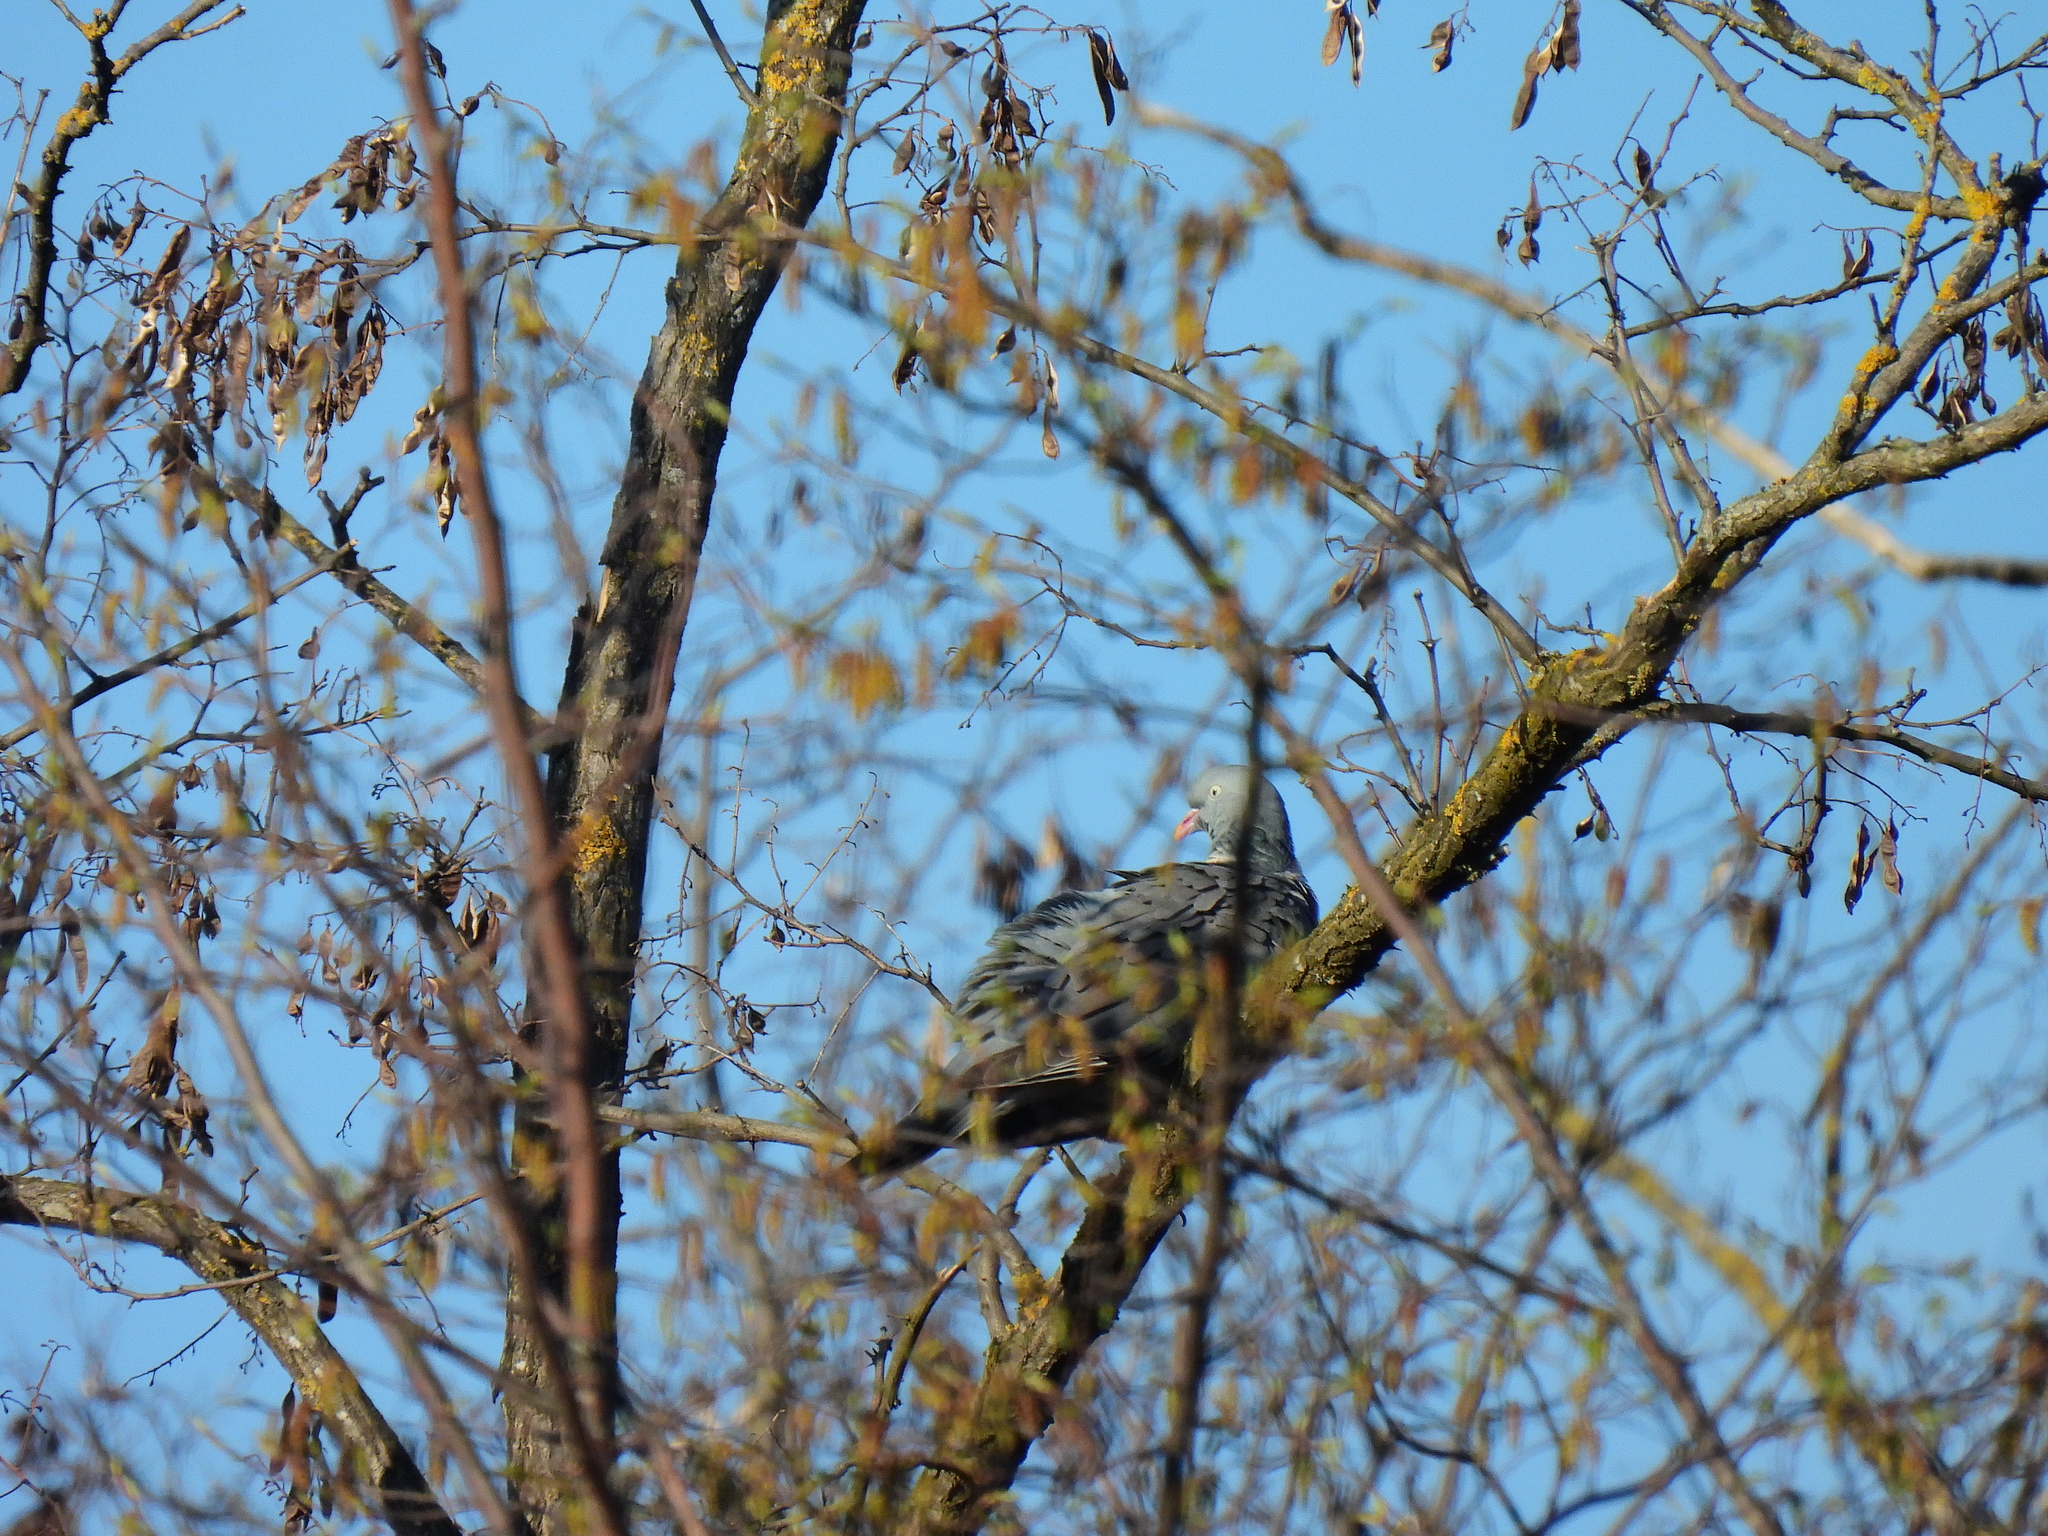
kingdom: Animalia
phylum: Chordata
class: Aves
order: Columbiformes
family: Columbidae
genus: Columba
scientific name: Columba palumbus
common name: Common wood pigeon
